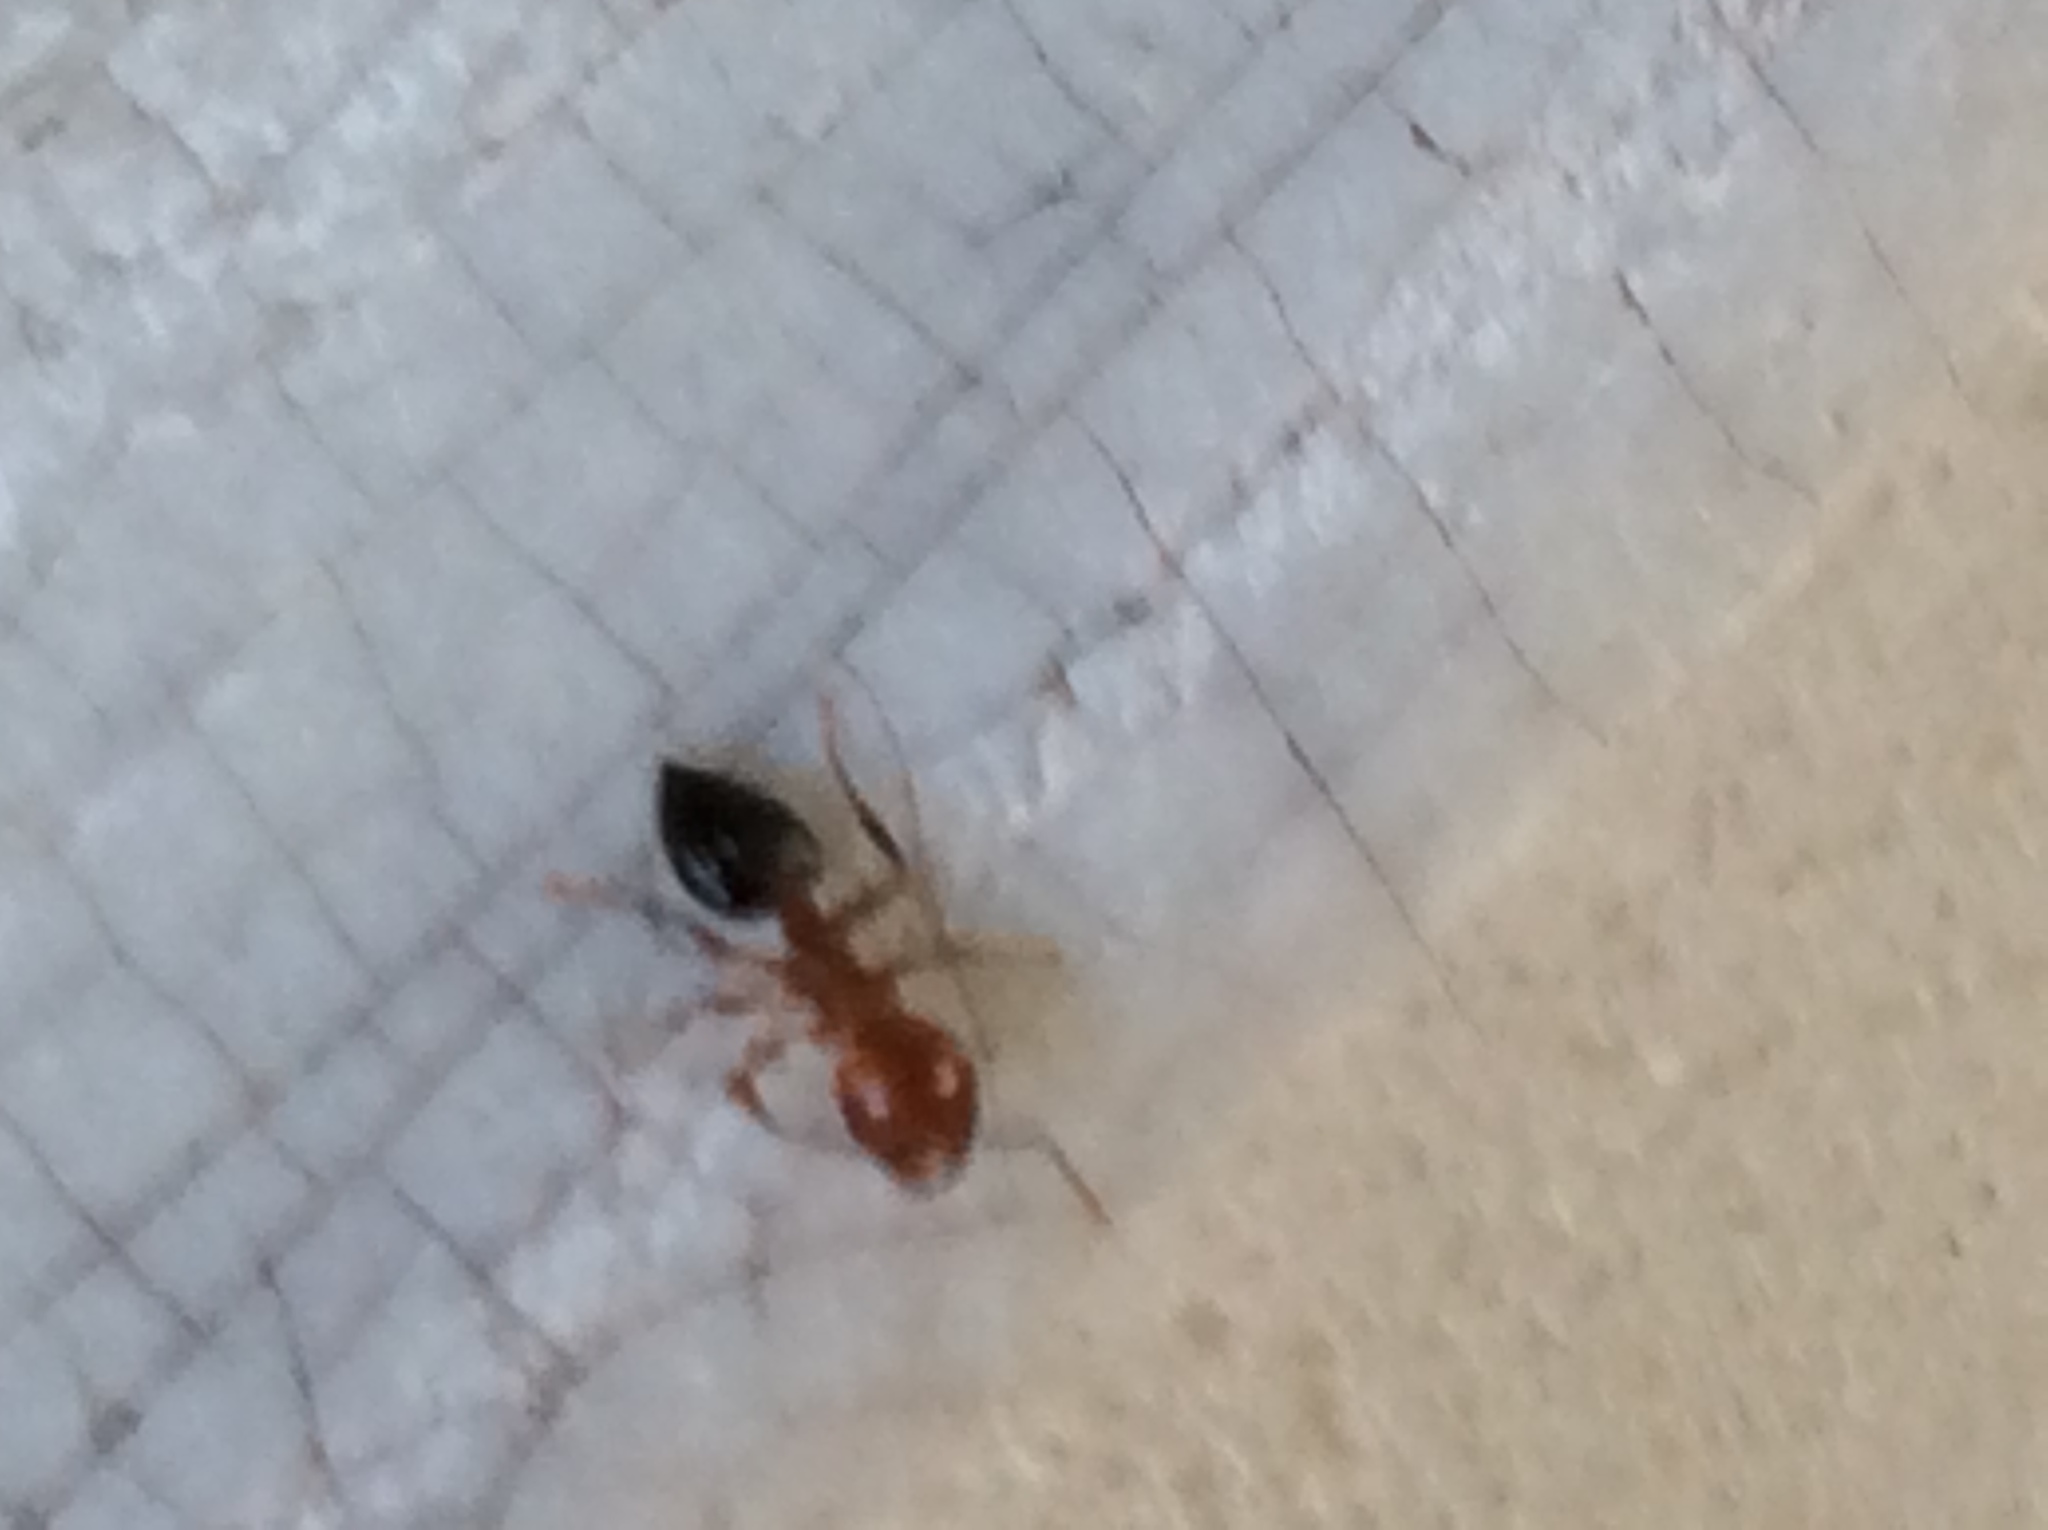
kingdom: Animalia
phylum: Arthropoda
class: Insecta
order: Hymenoptera
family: Formicidae
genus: Crematogaster
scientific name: Crematogaster laeviuscula
